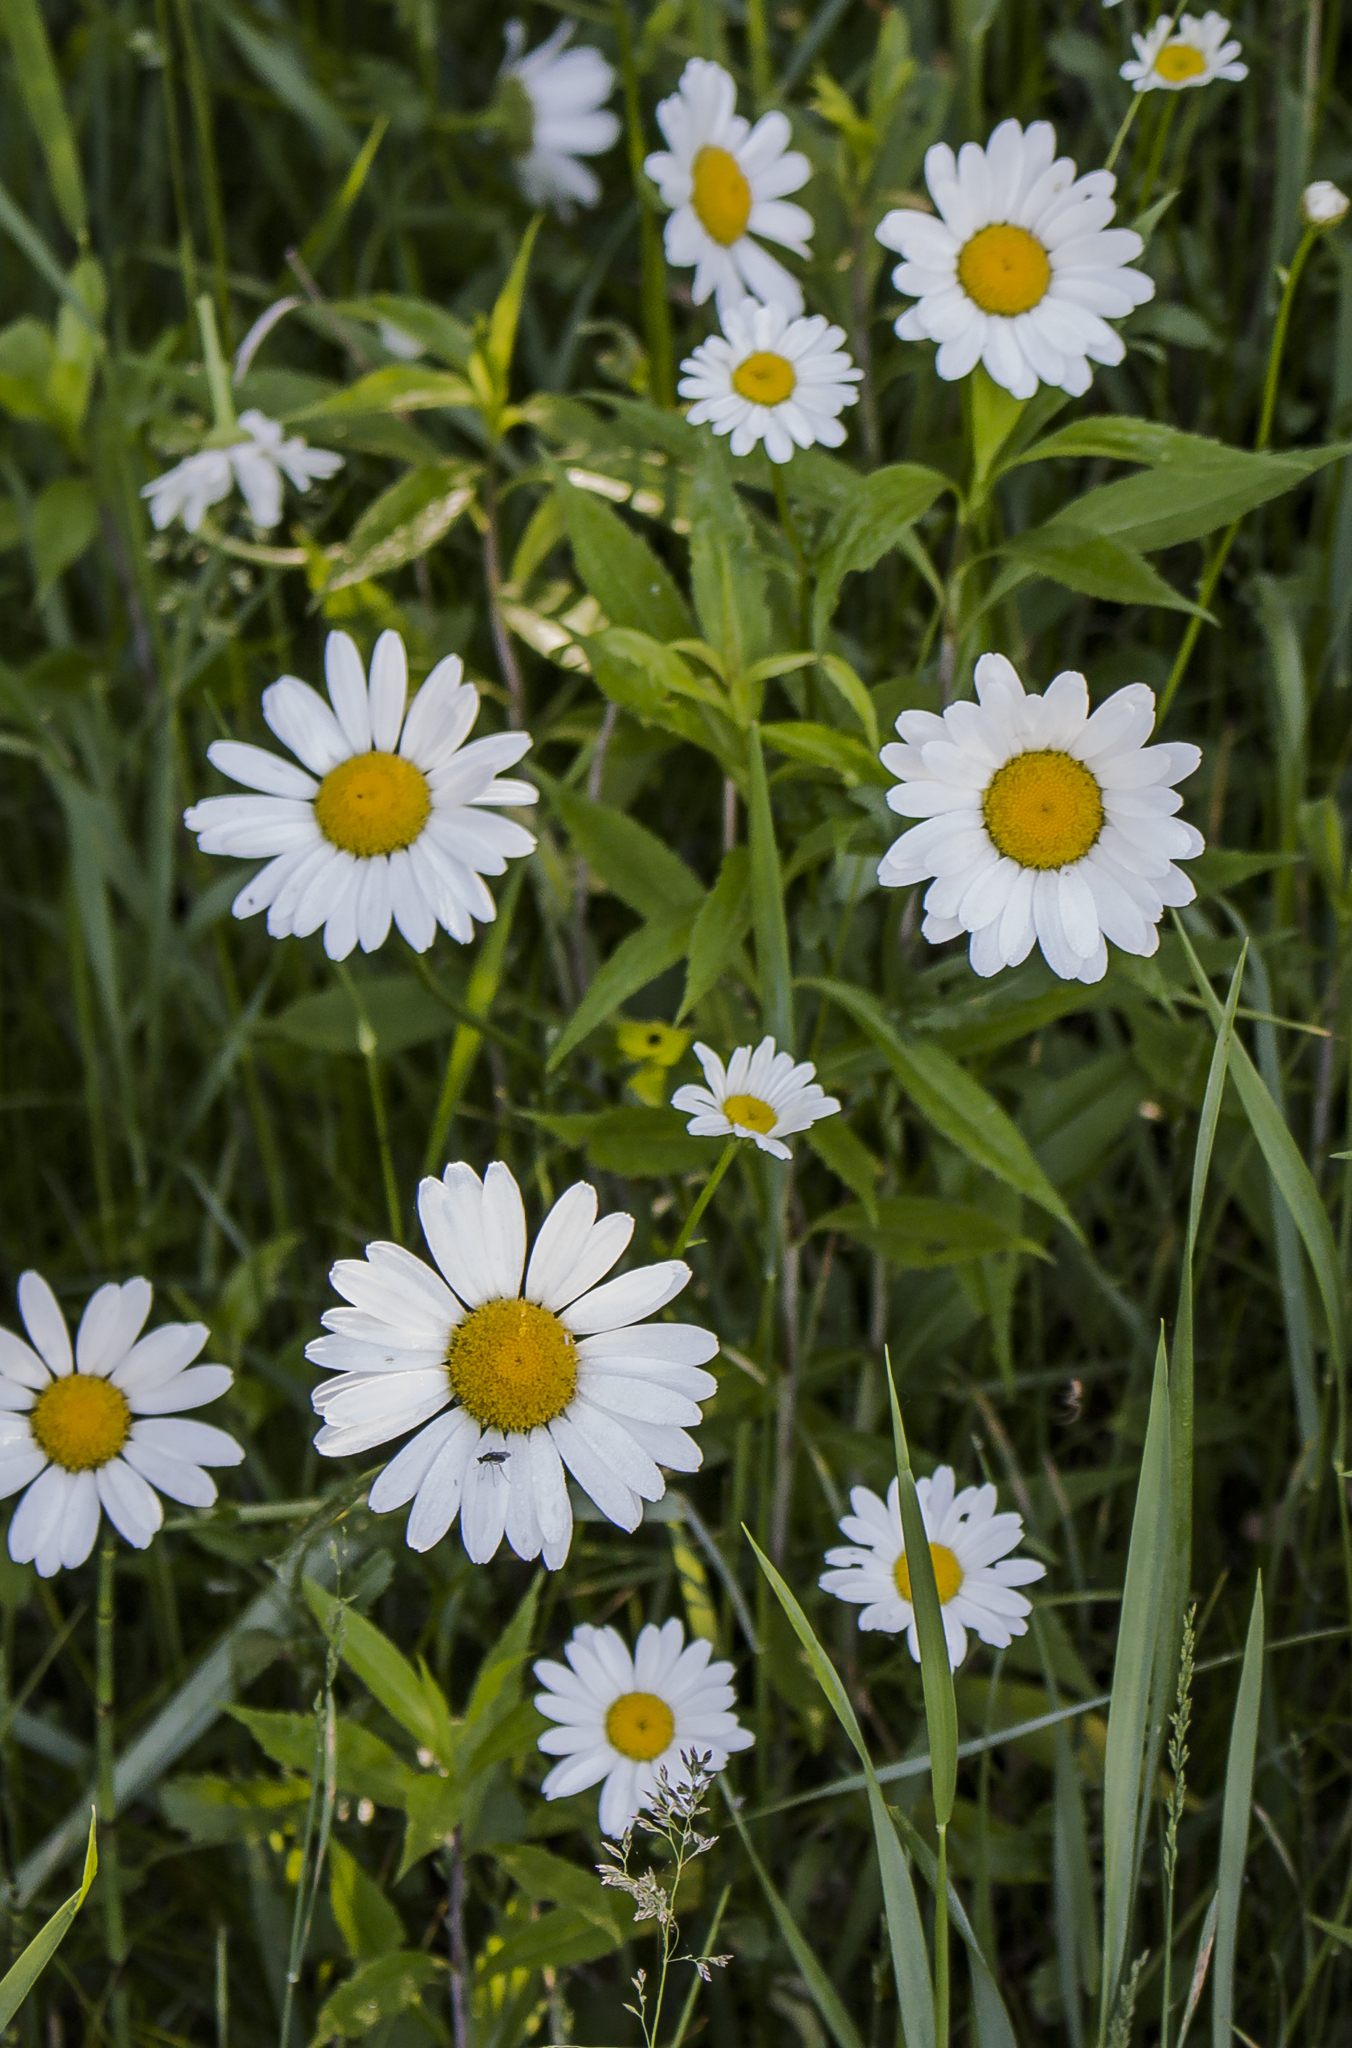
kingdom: Plantae
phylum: Tracheophyta
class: Magnoliopsida
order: Asterales
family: Asteraceae
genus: Leucanthemum
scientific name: Leucanthemum vulgare
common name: Oxeye daisy
